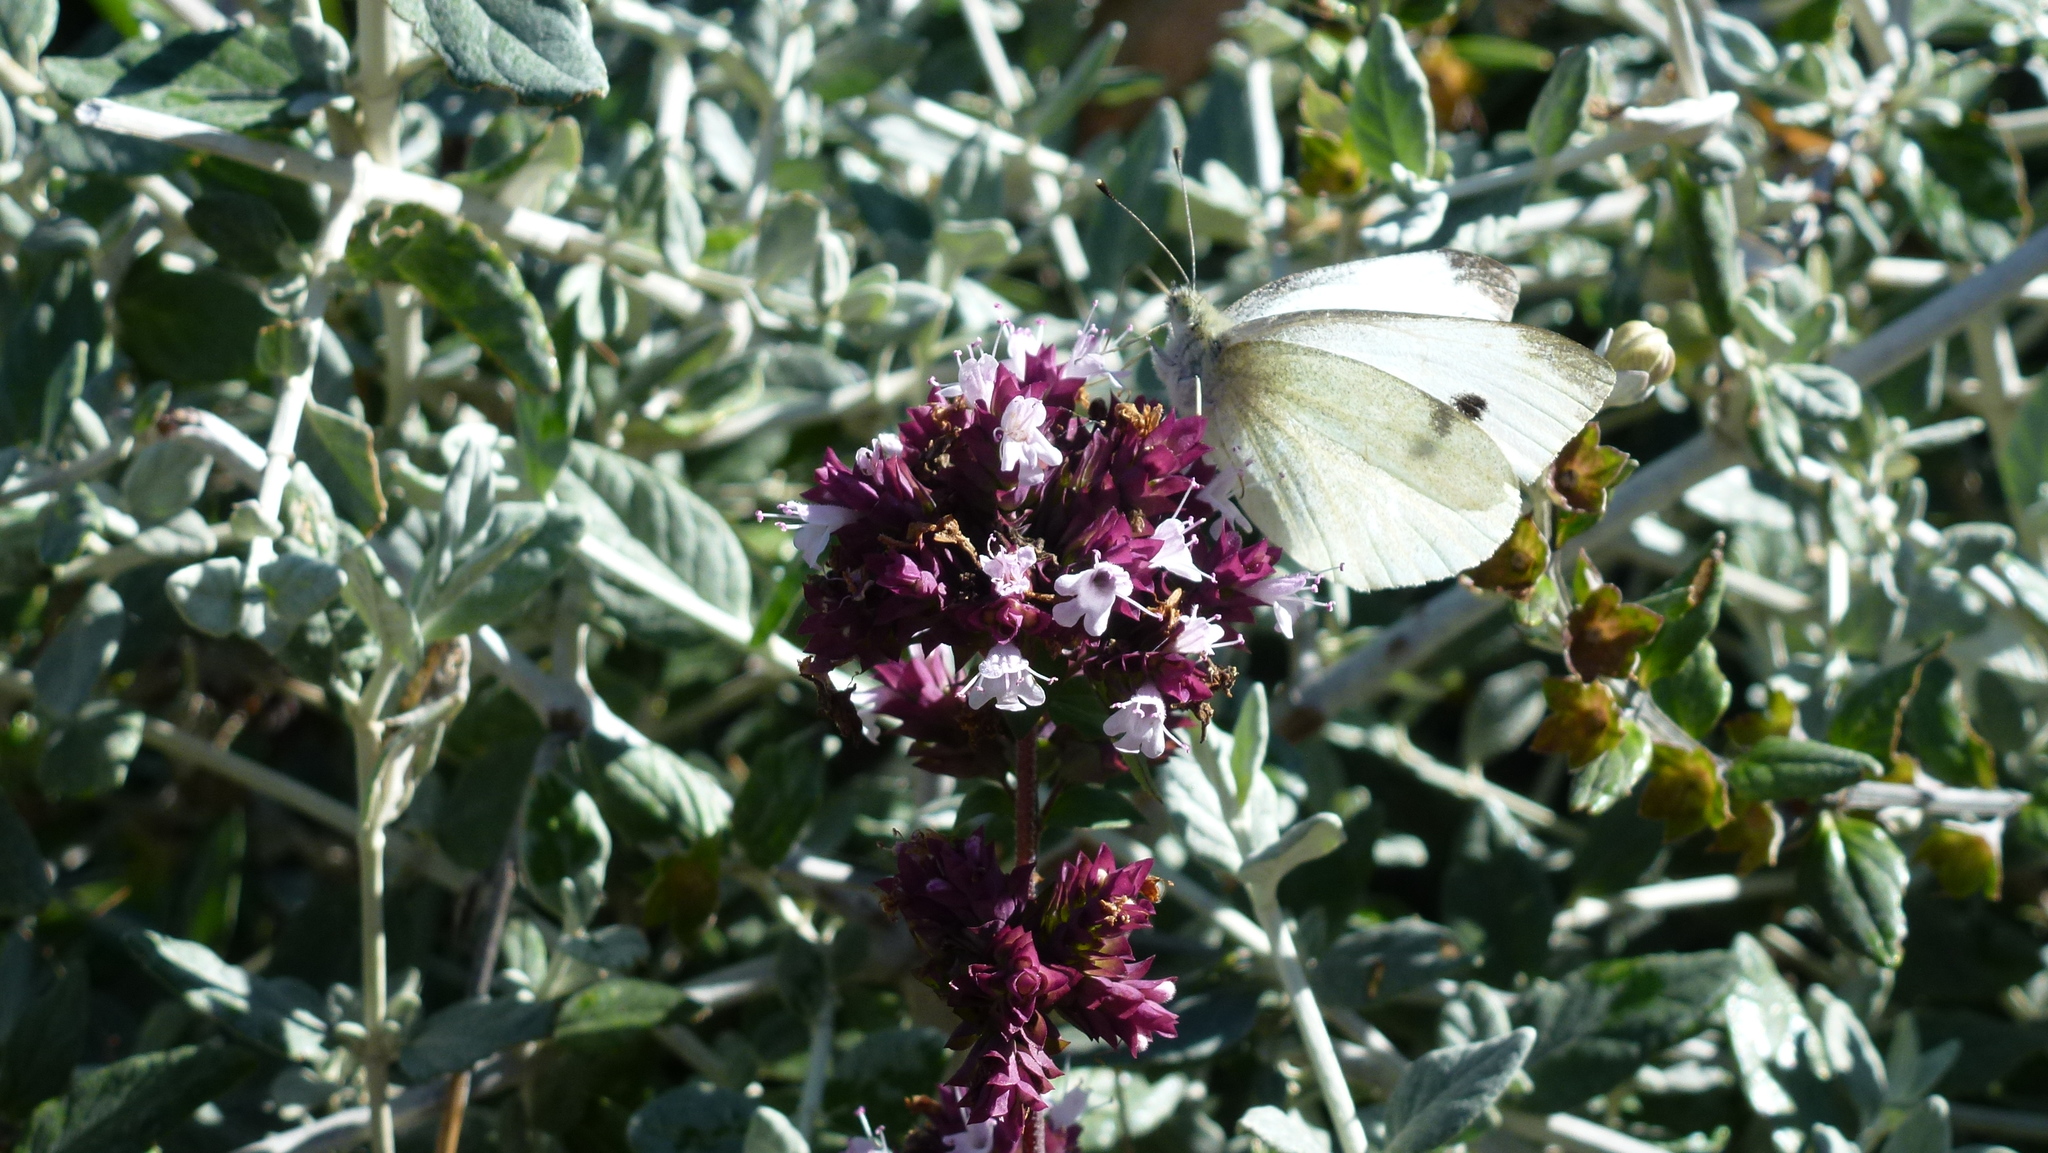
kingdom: Animalia
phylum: Arthropoda
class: Insecta
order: Lepidoptera
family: Pieridae
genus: Pieris
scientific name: Pieris rapae
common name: Small white
